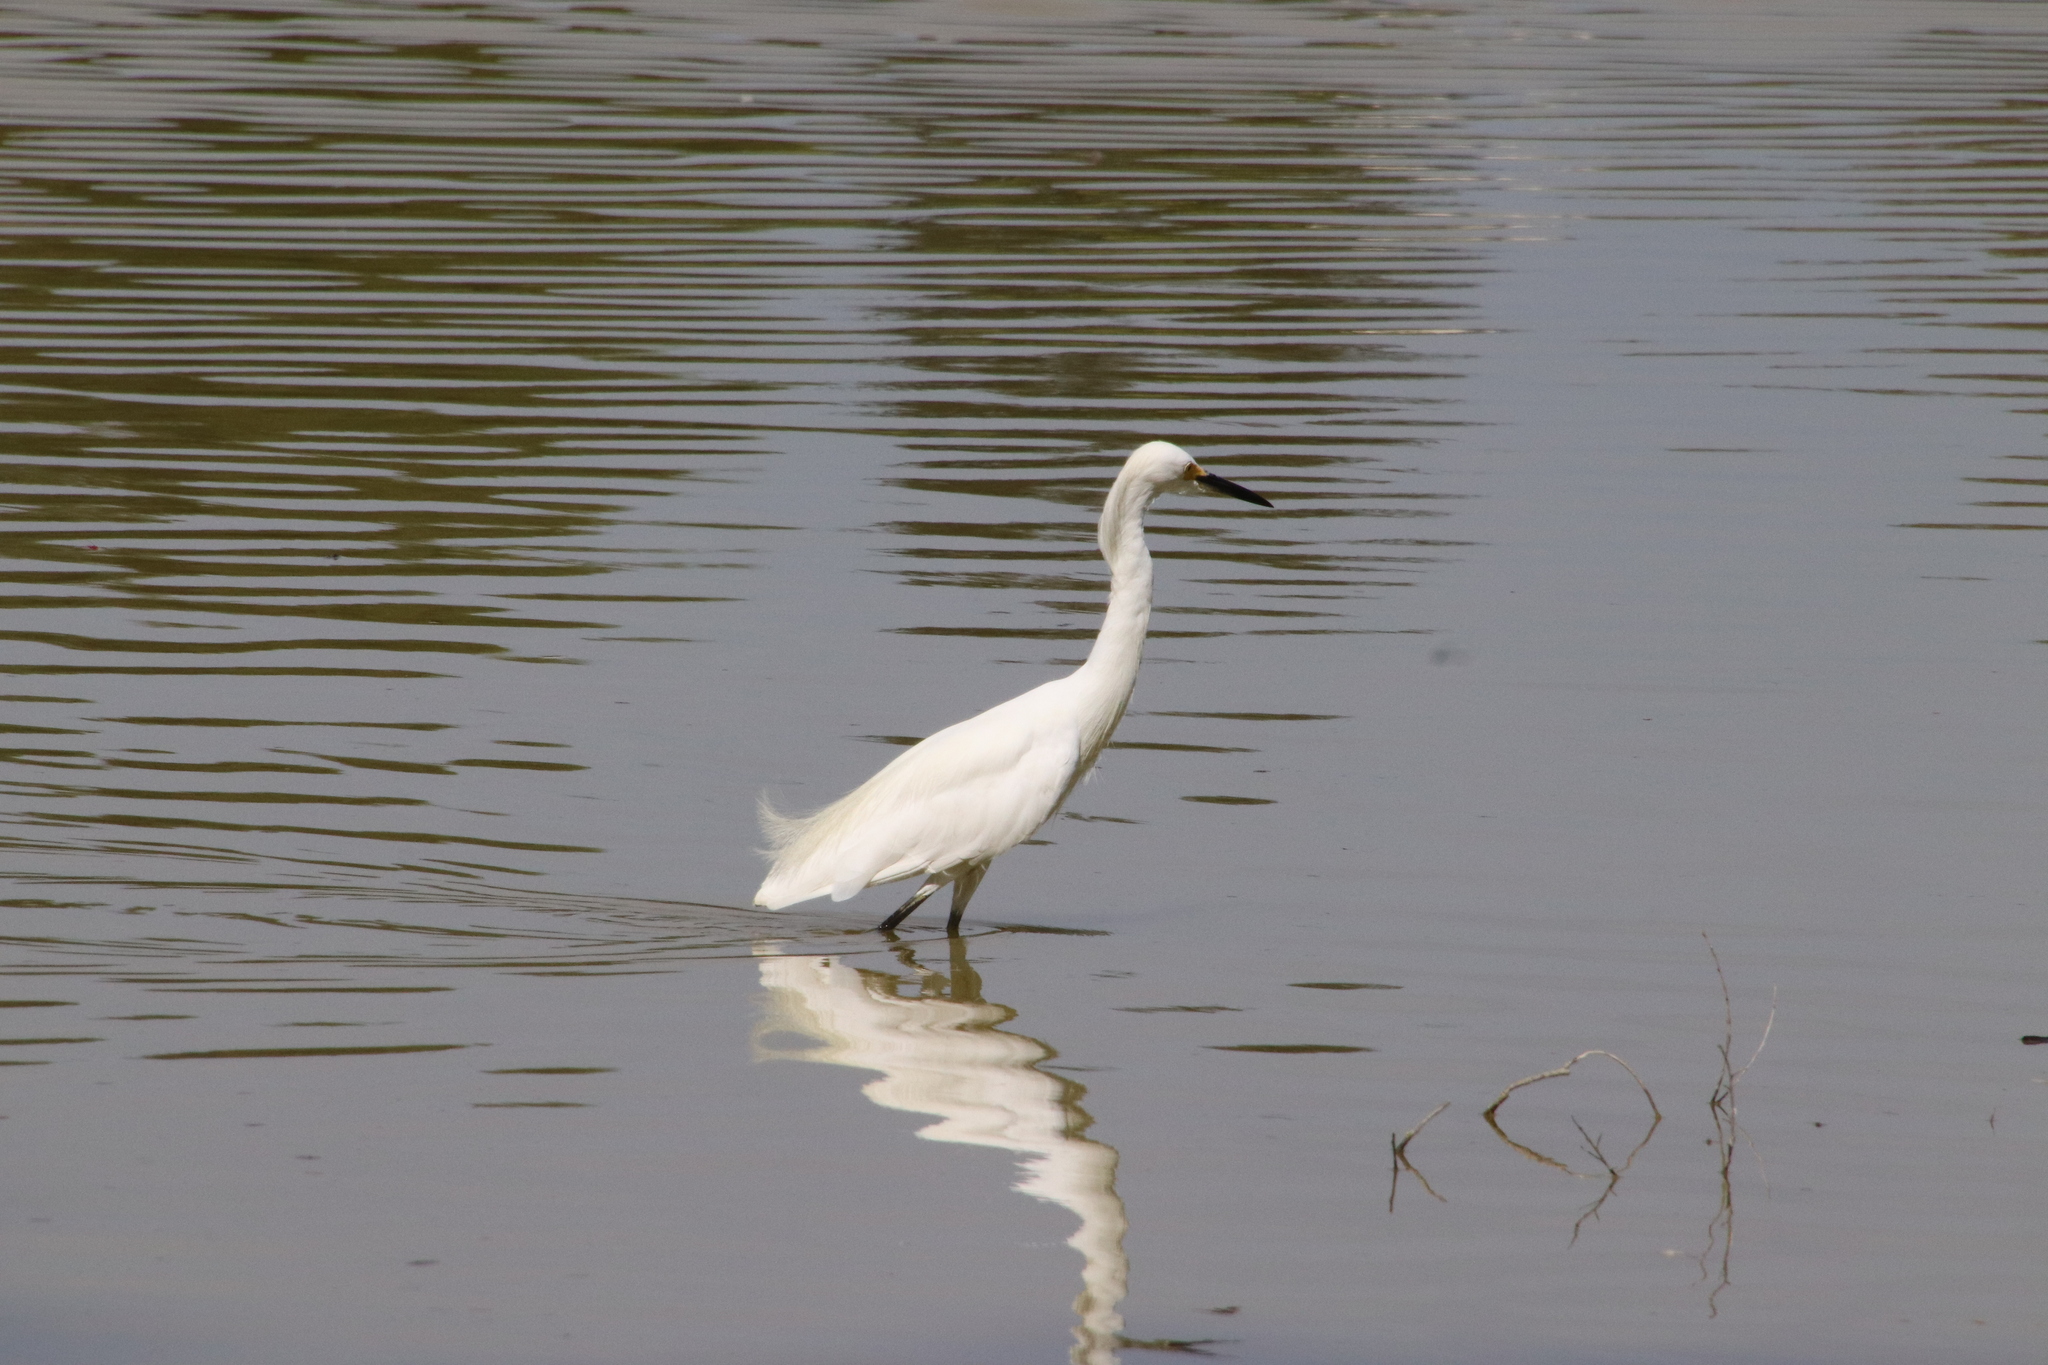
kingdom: Animalia
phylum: Chordata
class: Aves
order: Pelecaniformes
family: Ardeidae
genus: Egretta
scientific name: Egretta thula
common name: Snowy egret
